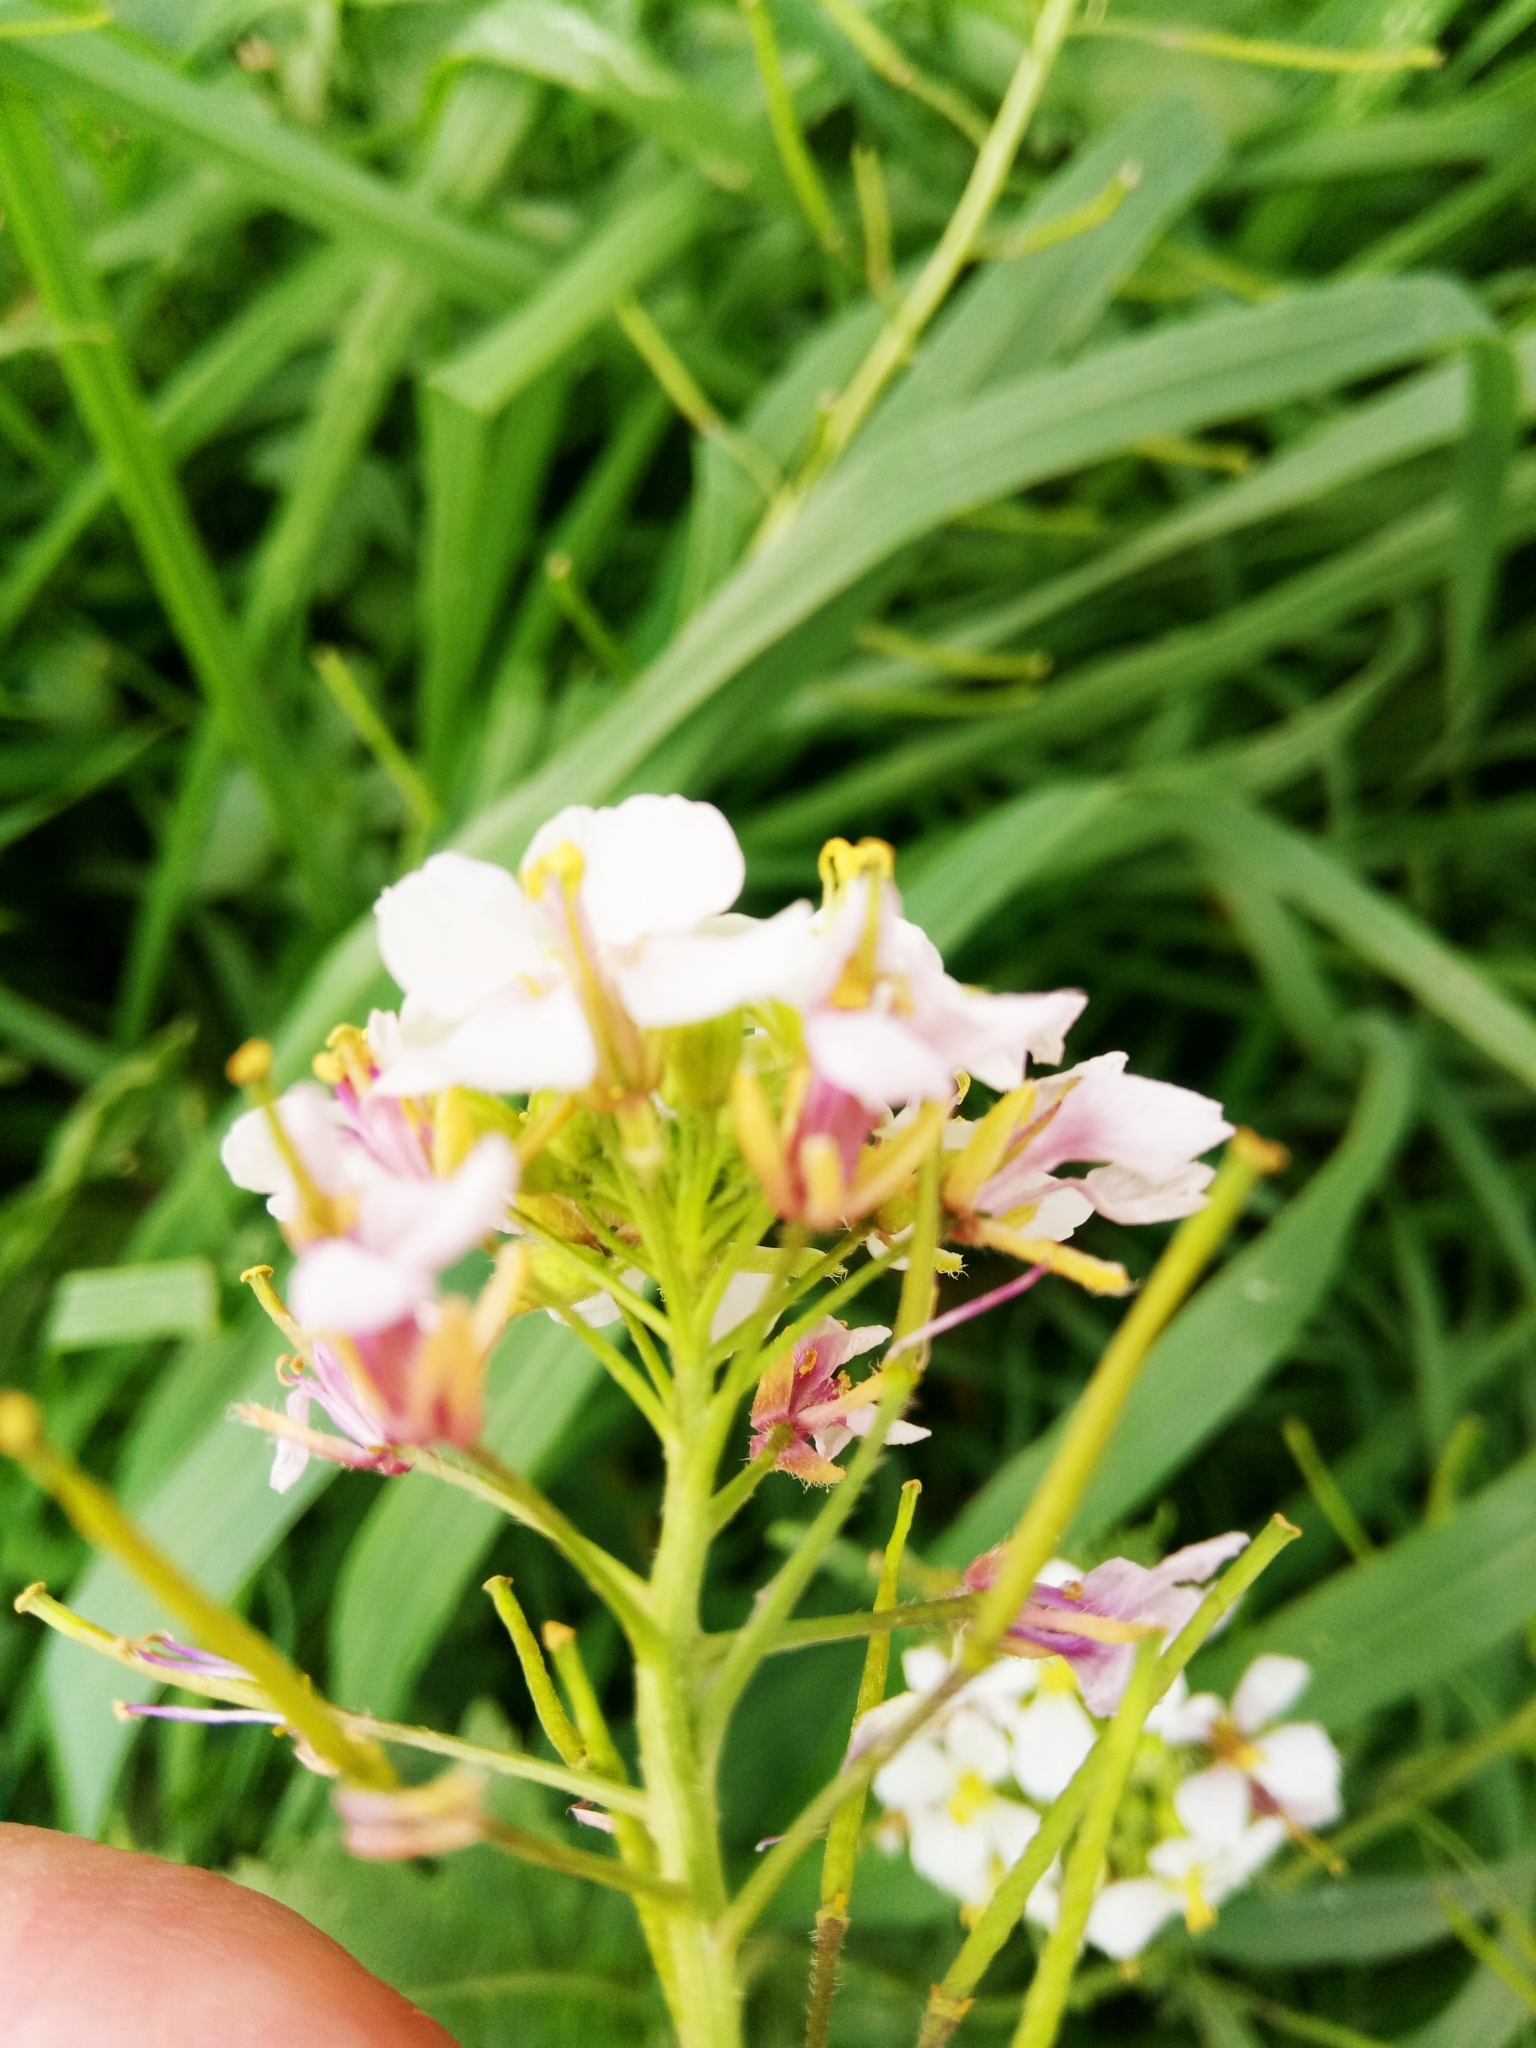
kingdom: Plantae
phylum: Tracheophyta
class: Magnoliopsida
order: Brassicales
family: Brassicaceae
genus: Diplotaxis
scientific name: Diplotaxis erucoides
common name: White rocket
